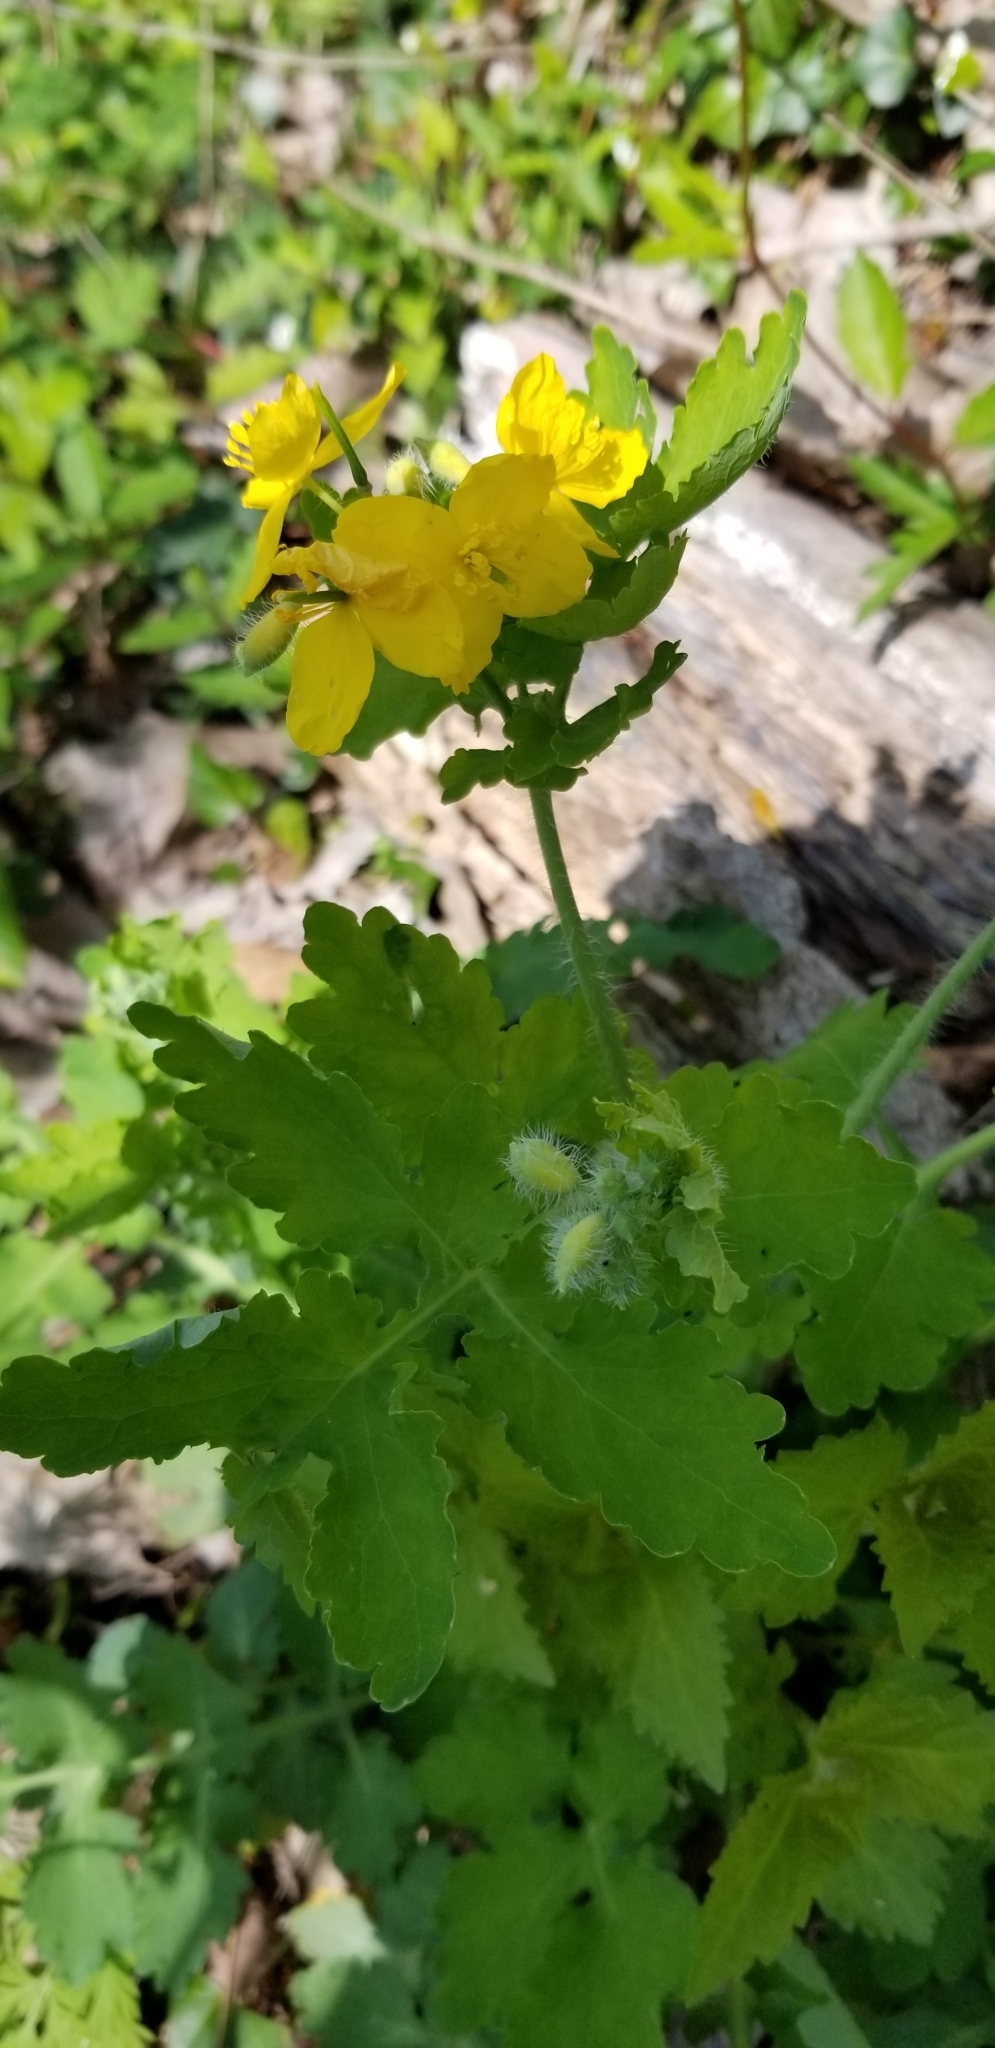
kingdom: Plantae
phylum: Tracheophyta
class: Magnoliopsida
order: Ranunculales
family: Papaveraceae
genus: Chelidonium
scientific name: Chelidonium majus
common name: Greater celandine
